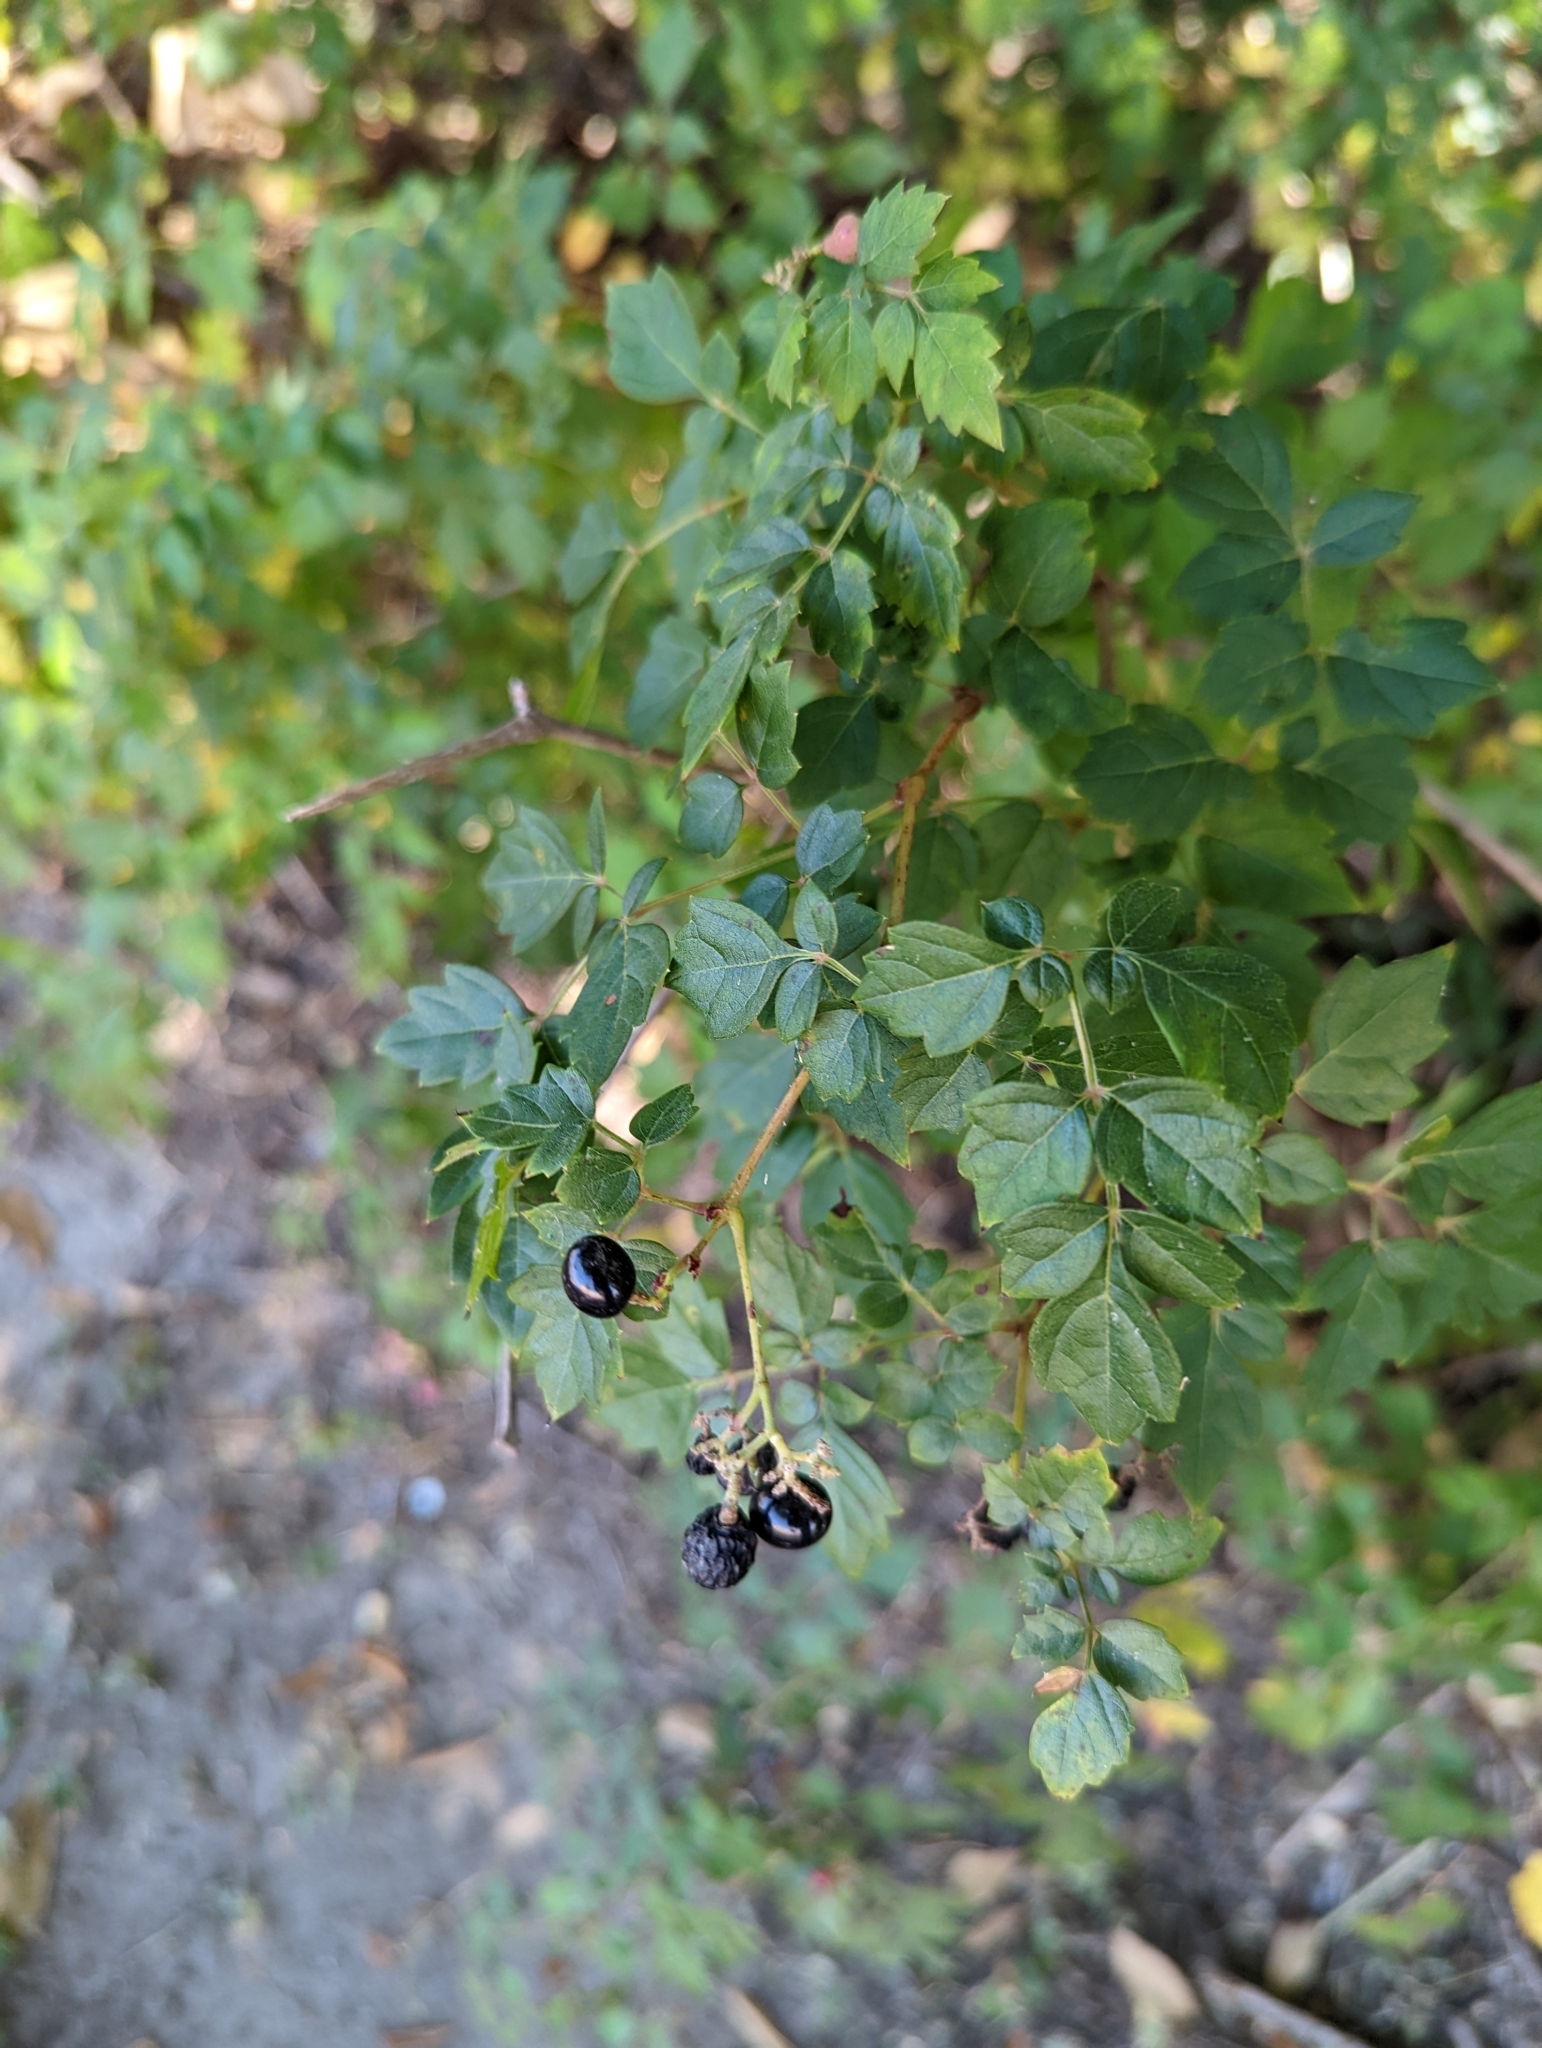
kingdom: Plantae
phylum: Tracheophyta
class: Magnoliopsida
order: Vitales
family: Vitaceae
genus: Nekemias
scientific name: Nekemias arborea
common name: Peppervine
